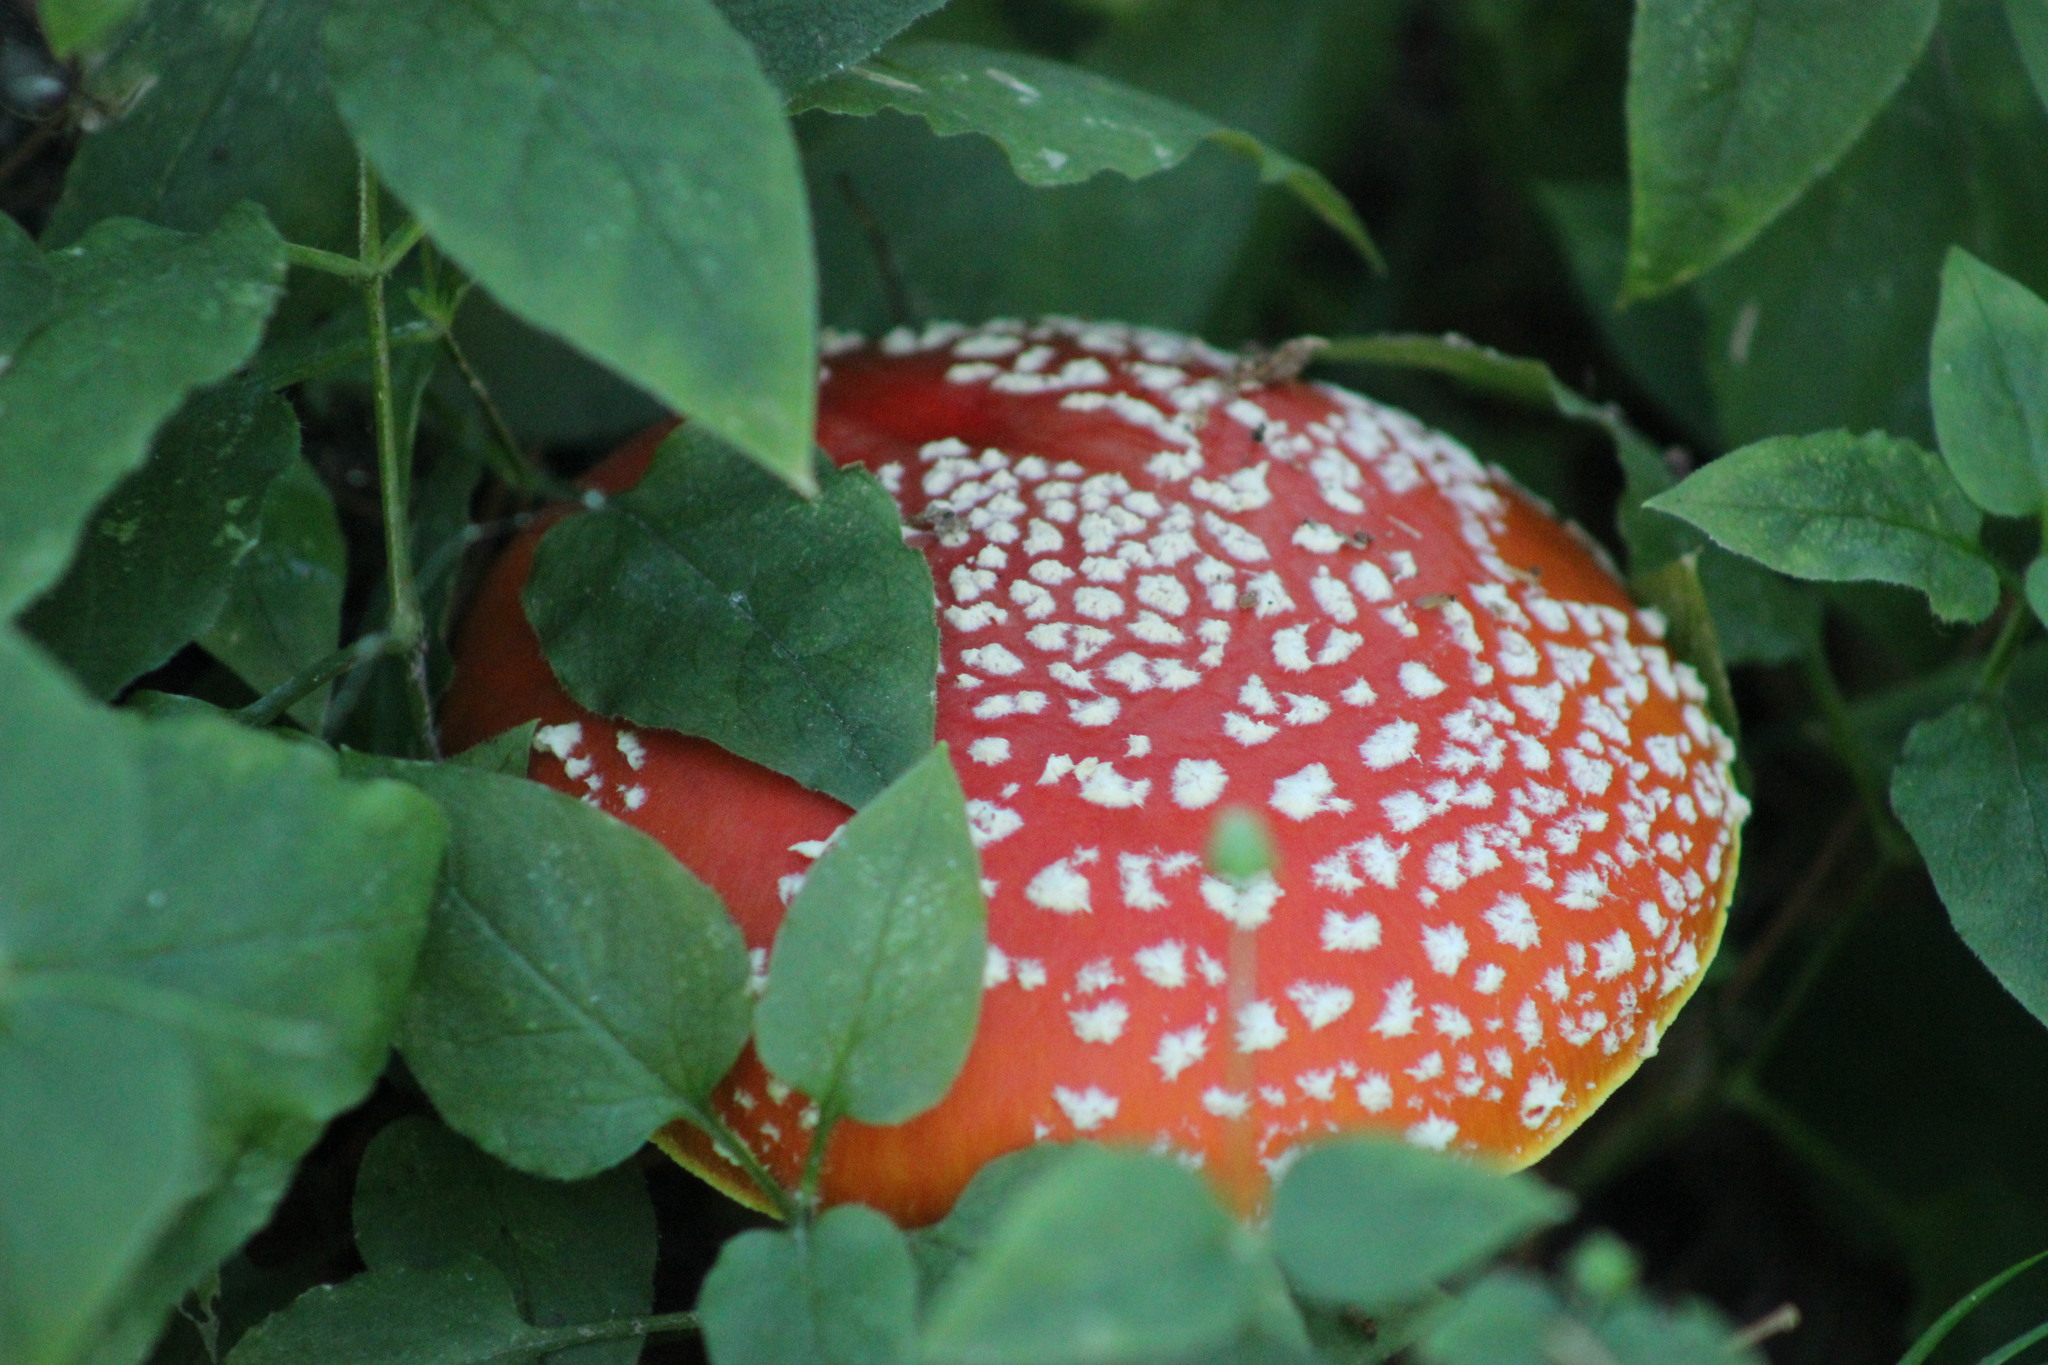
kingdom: Fungi
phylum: Basidiomycota
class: Agaricomycetes
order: Agaricales
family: Amanitaceae
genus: Amanita
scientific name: Amanita muscaria
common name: Fly agaric
